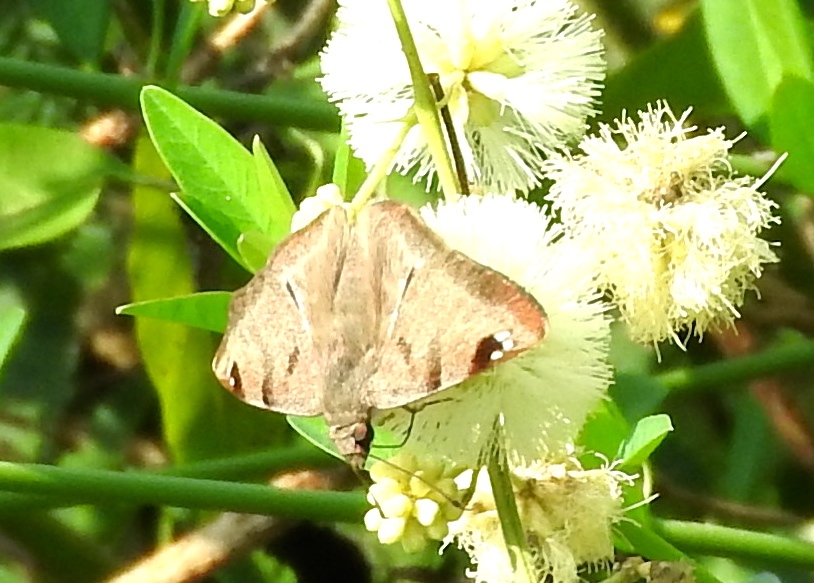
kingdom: Animalia
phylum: Arthropoda
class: Insecta
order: Lepidoptera
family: Hesperiidae
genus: Arteurotia
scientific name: Arteurotia tractipennis
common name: Starred skipper
